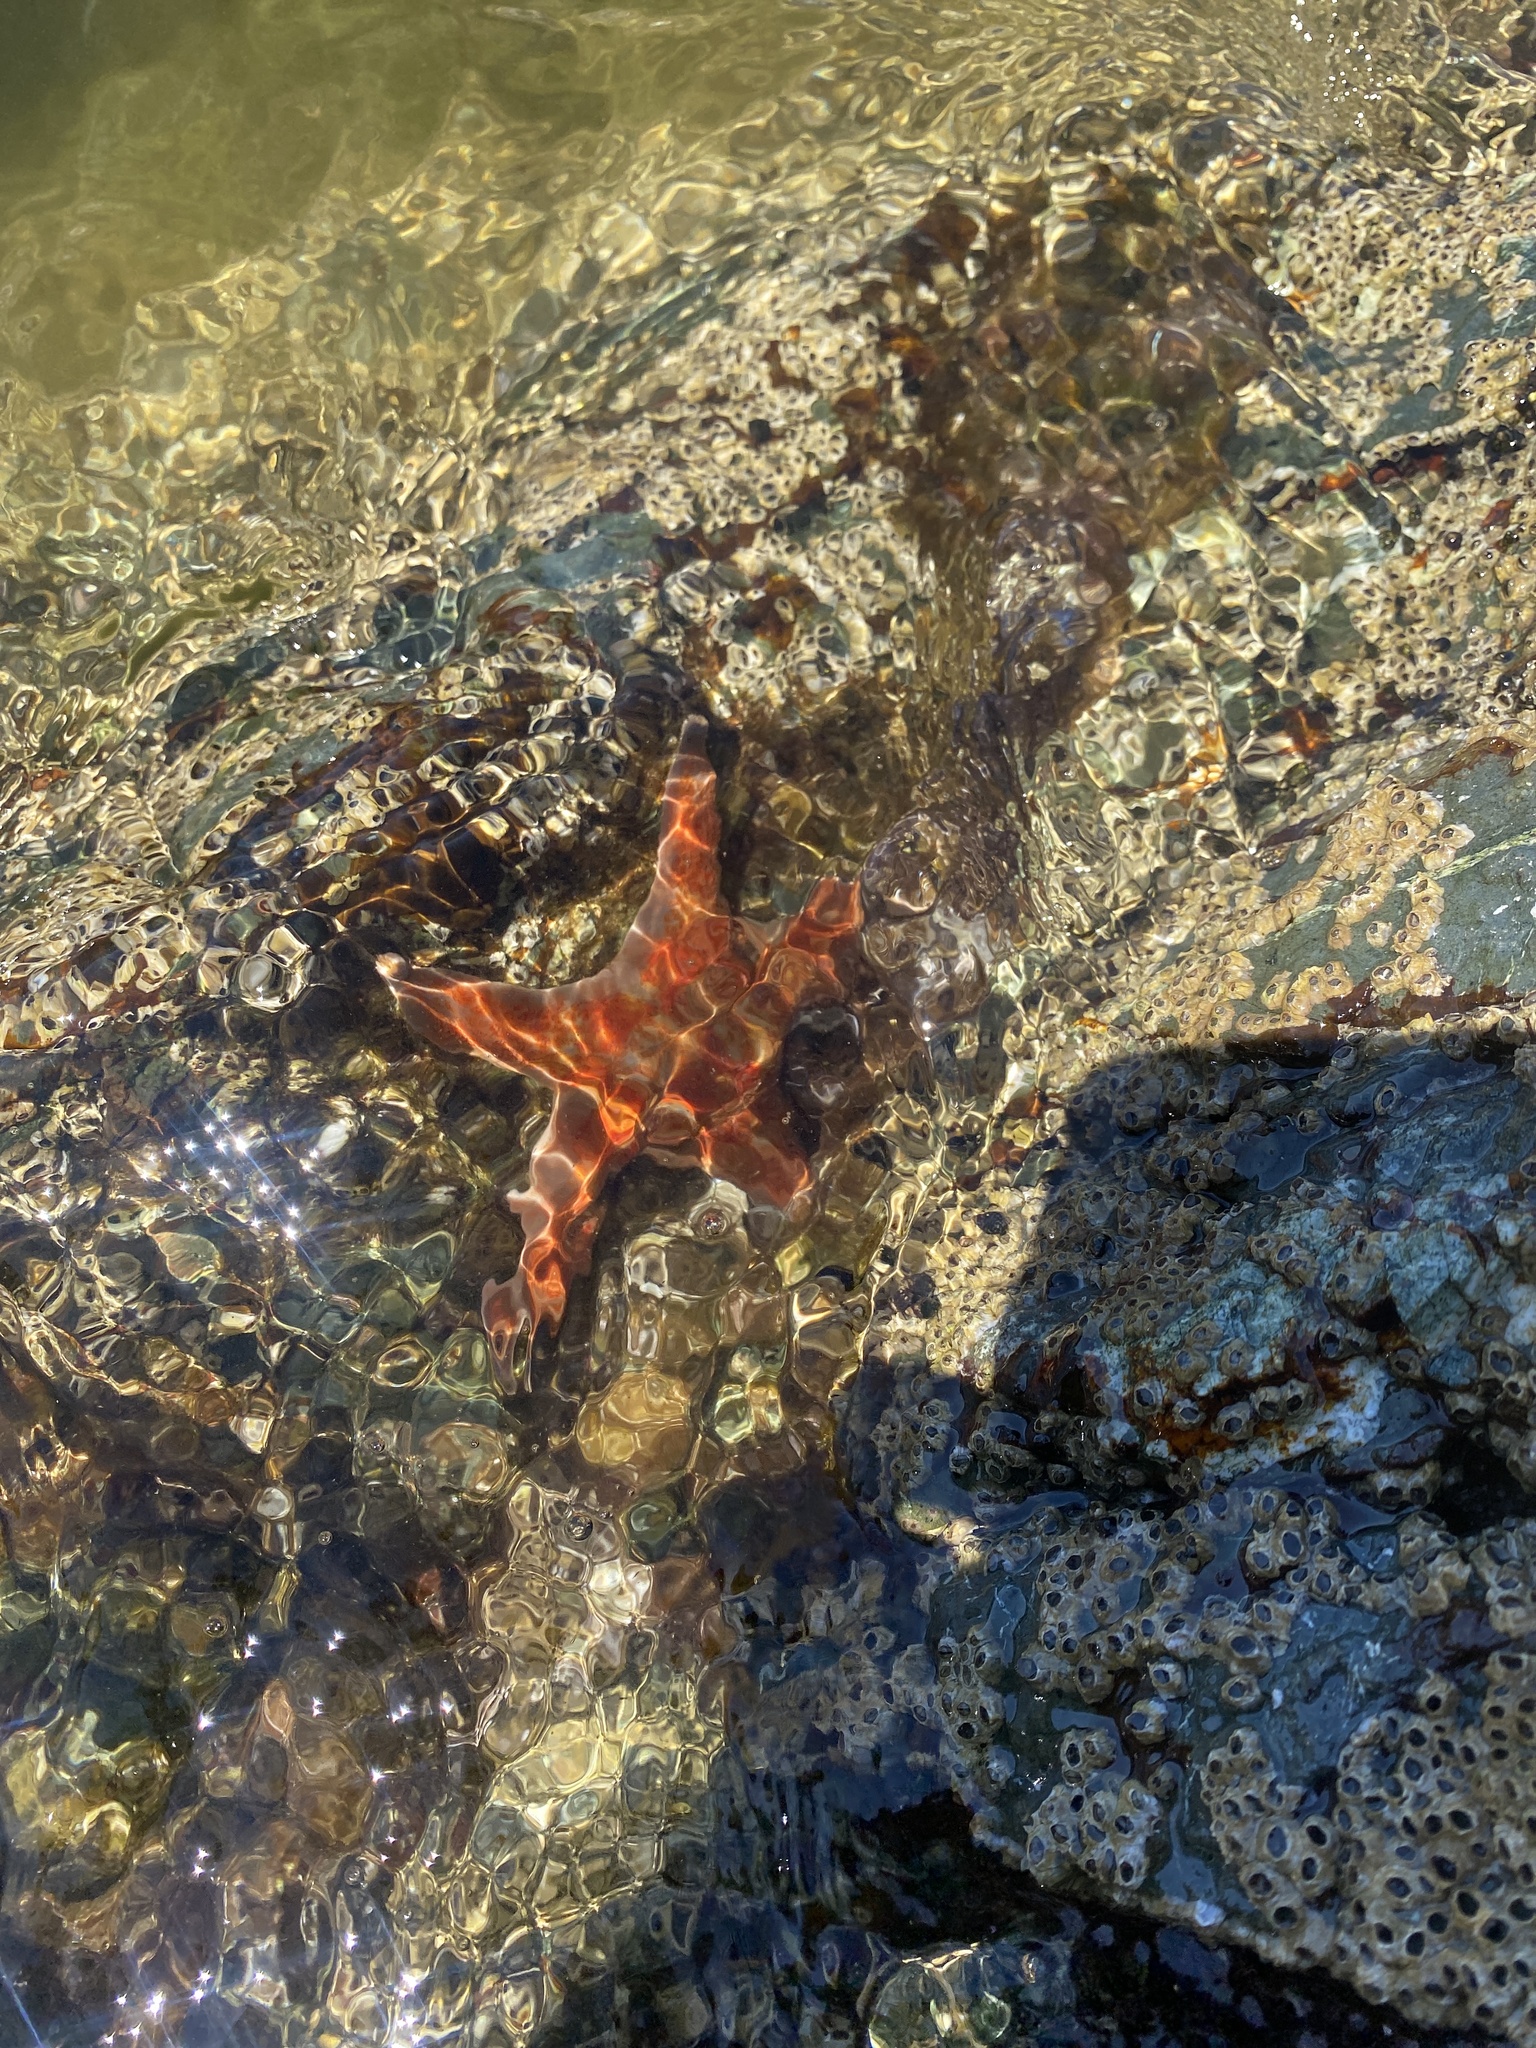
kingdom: Animalia
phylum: Echinodermata
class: Asteroidea
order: Valvatida
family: Asteropseidae
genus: Dermasterias
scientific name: Dermasterias imbricata
